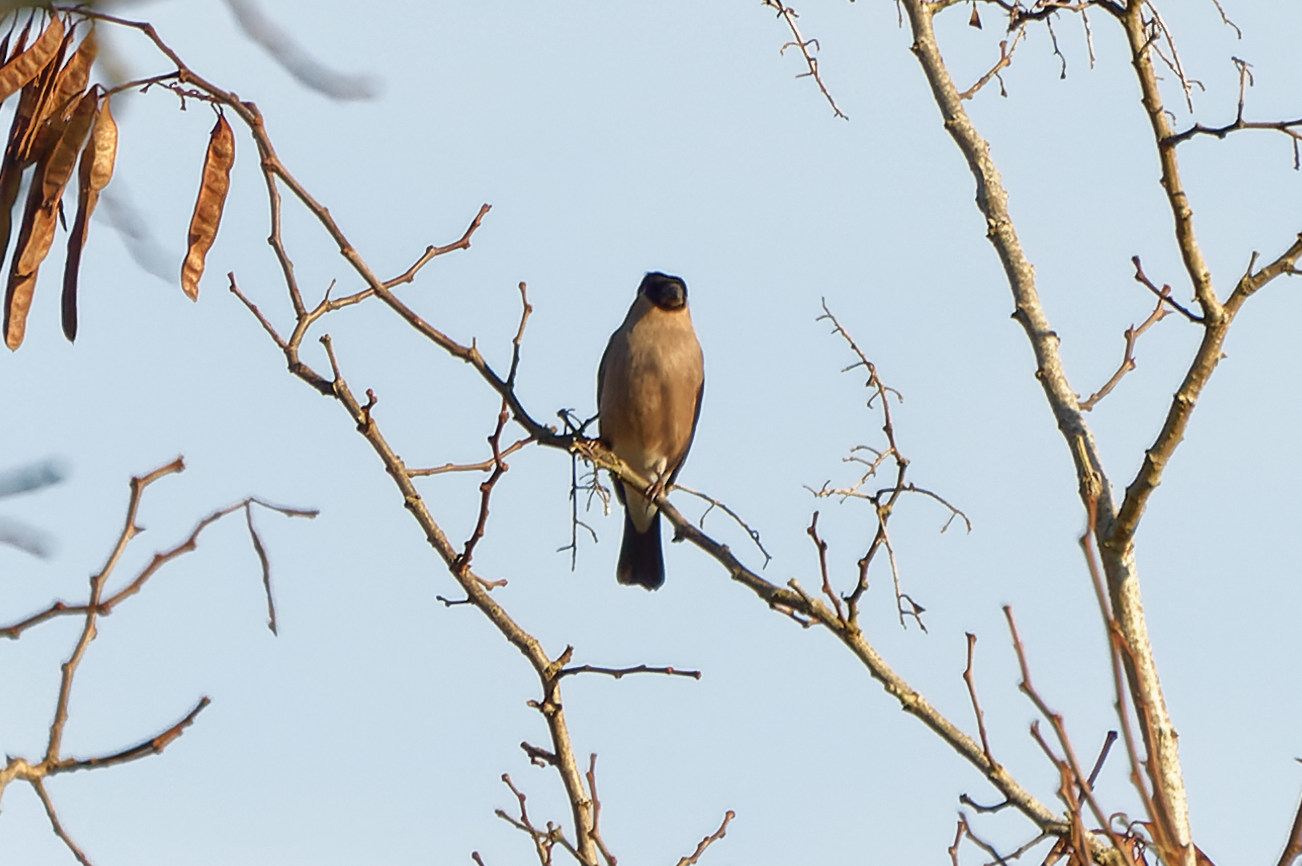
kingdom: Animalia
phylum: Chordata
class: Aves
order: Passeriformes
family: Fringillidae
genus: Pyrrhula
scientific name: Pyrrhula pyrrhula
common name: Eurasian bullfinch
